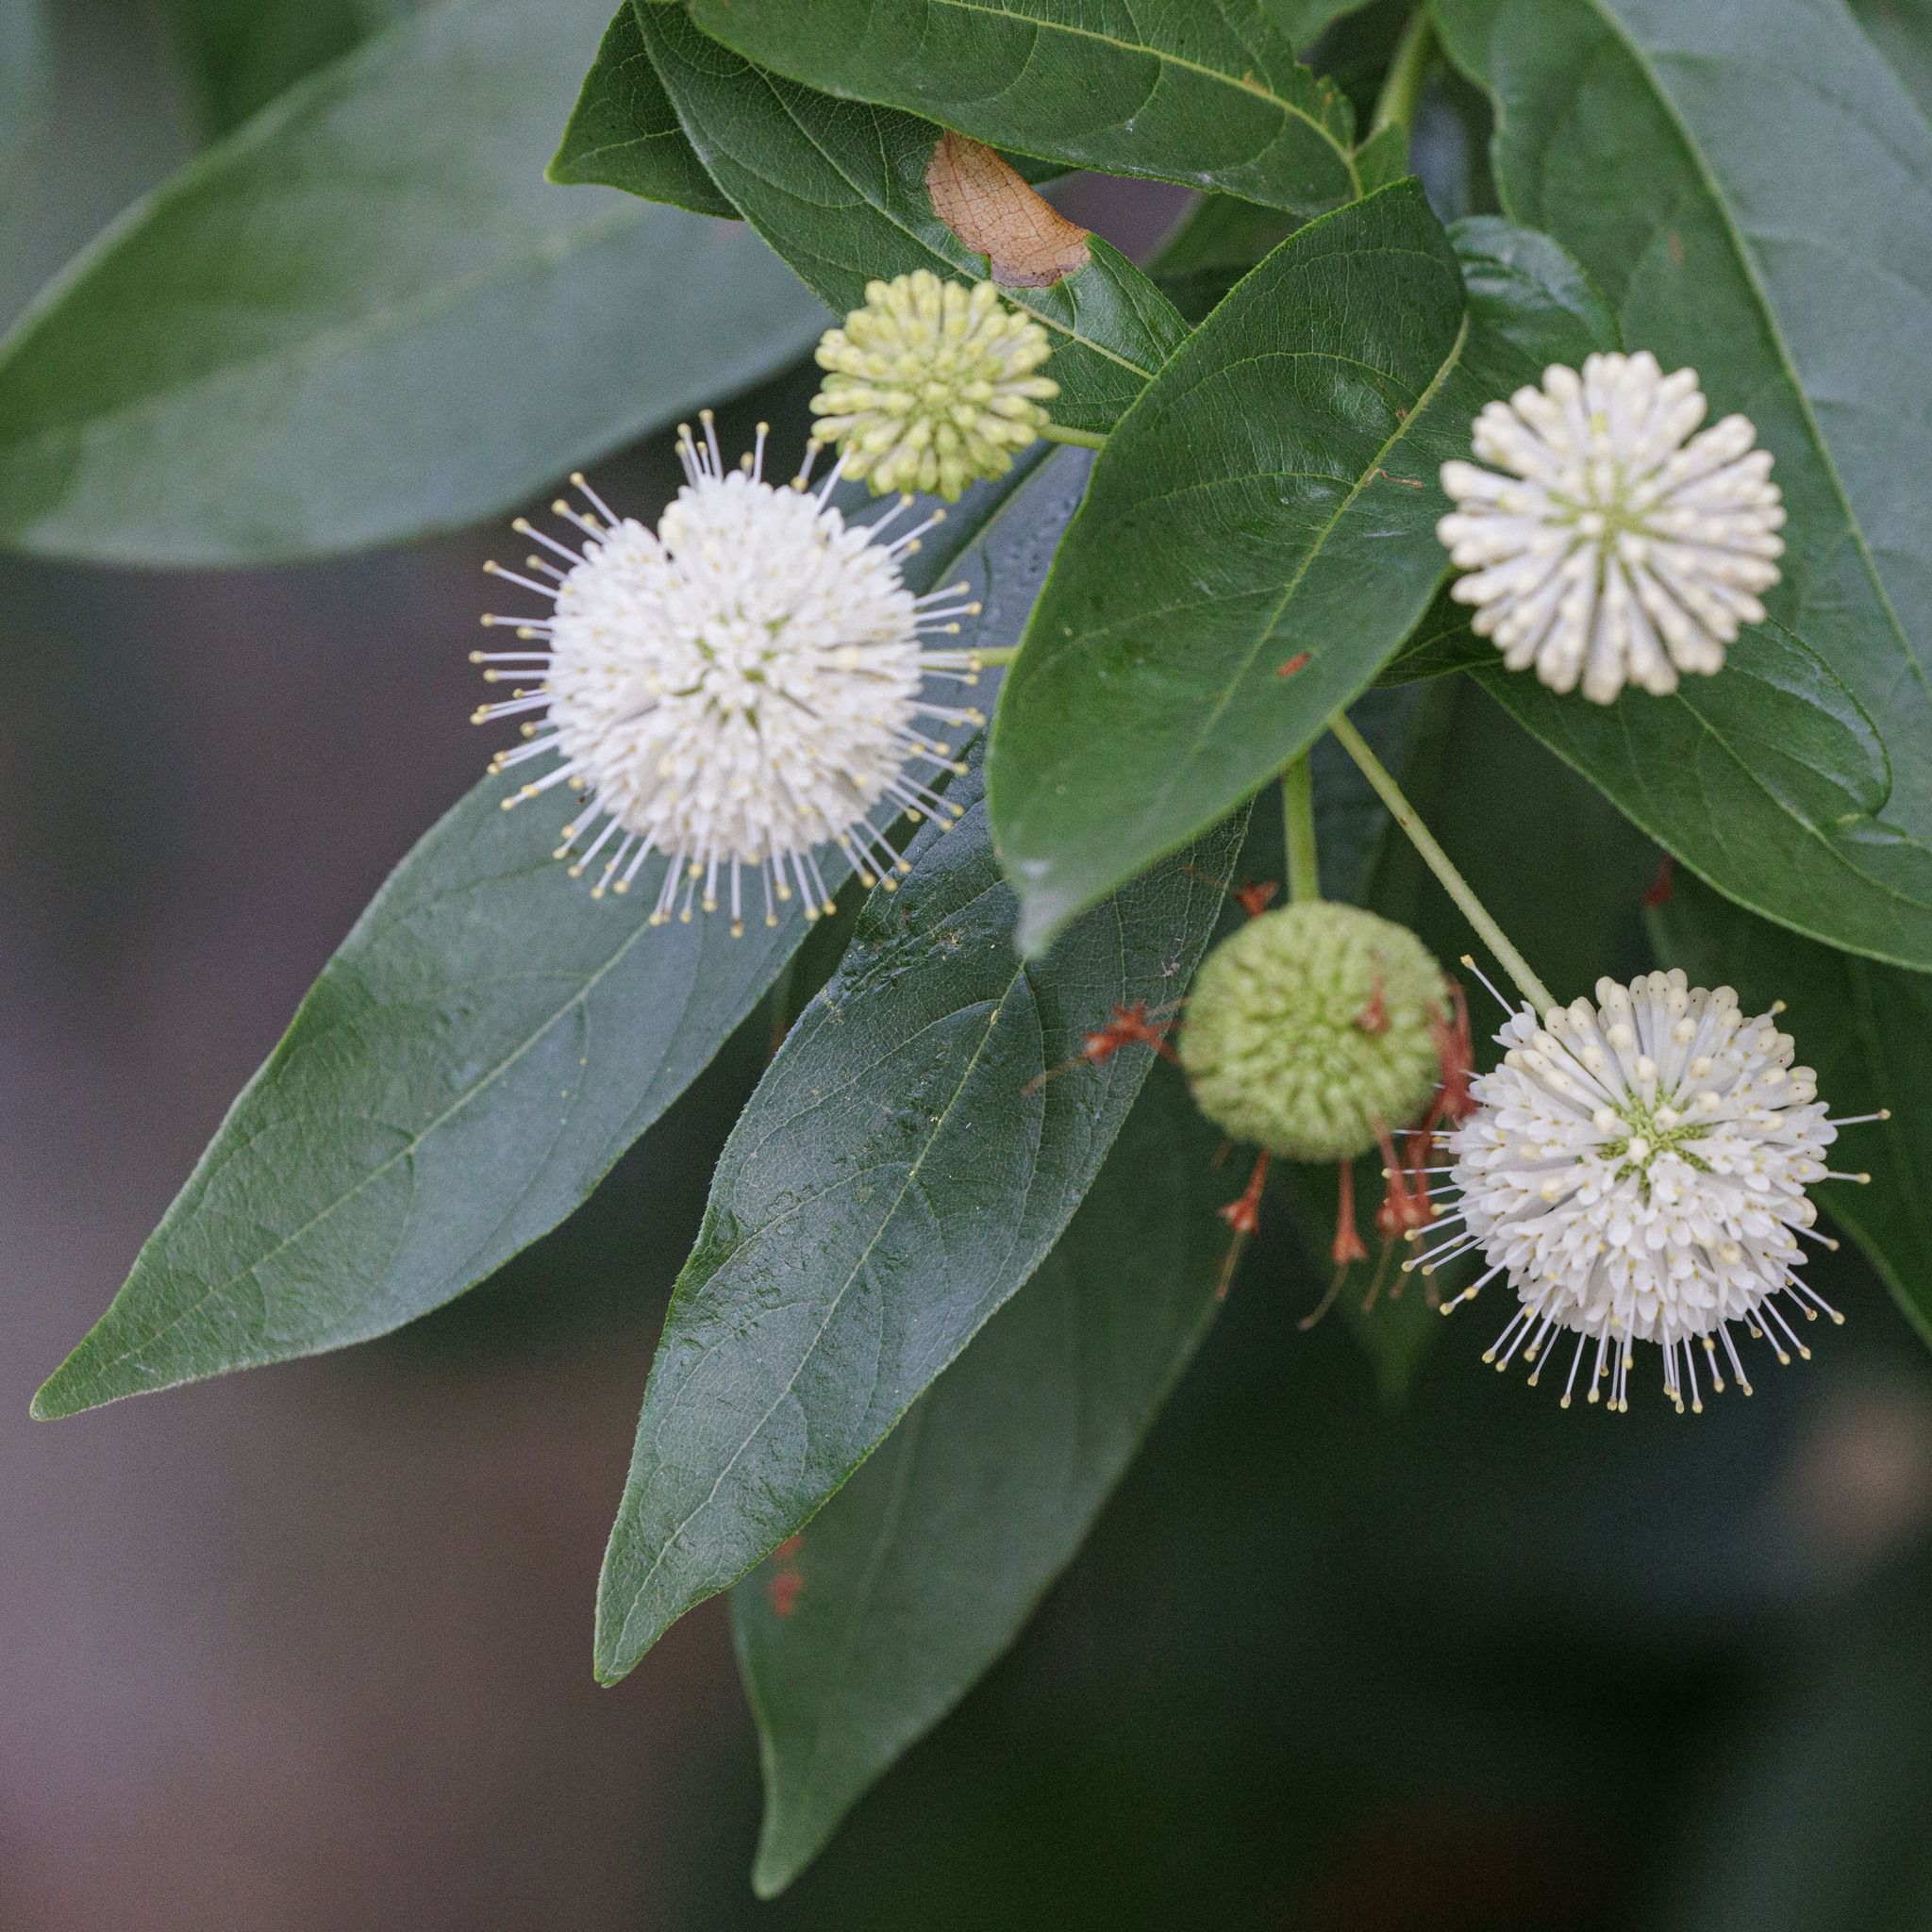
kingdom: Plantae
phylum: Tracheophyta
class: Magnoliopsida
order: Gentianales
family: Rubiaceae
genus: Cephalanthus
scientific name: Cephalanthus occidentalis
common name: Button-willow
